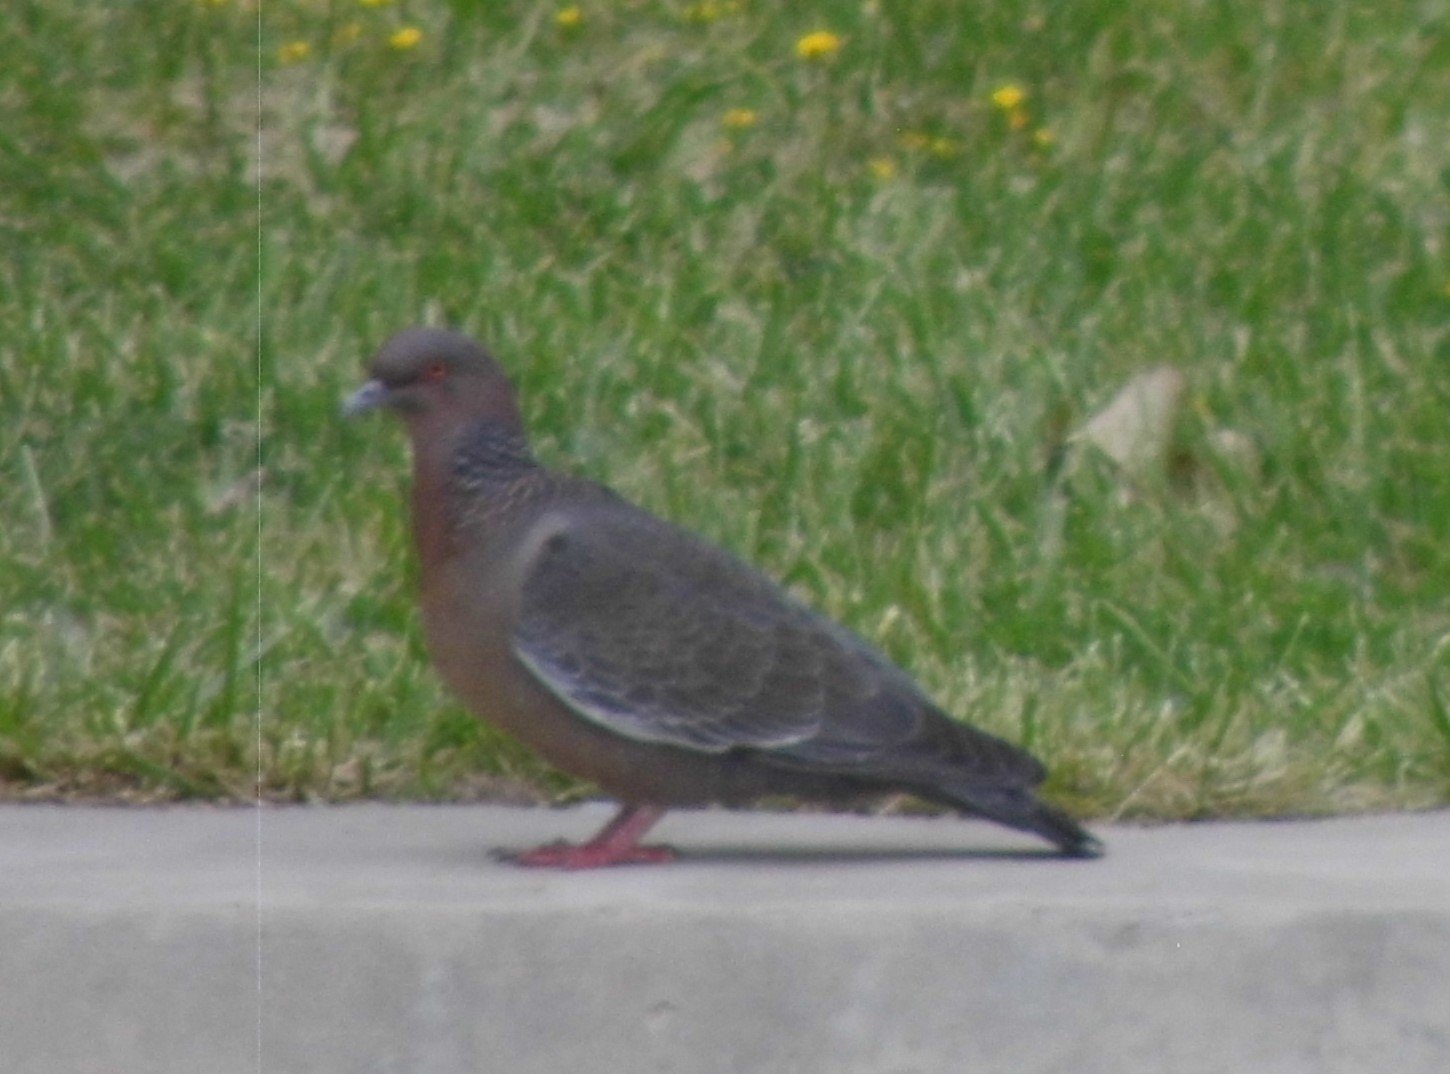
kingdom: Animalia
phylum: Chordata
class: Aves
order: Columbiformes
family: Columbidae
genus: Patagioenas
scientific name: Patagioenas picazuro
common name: Picazuro pigeon
